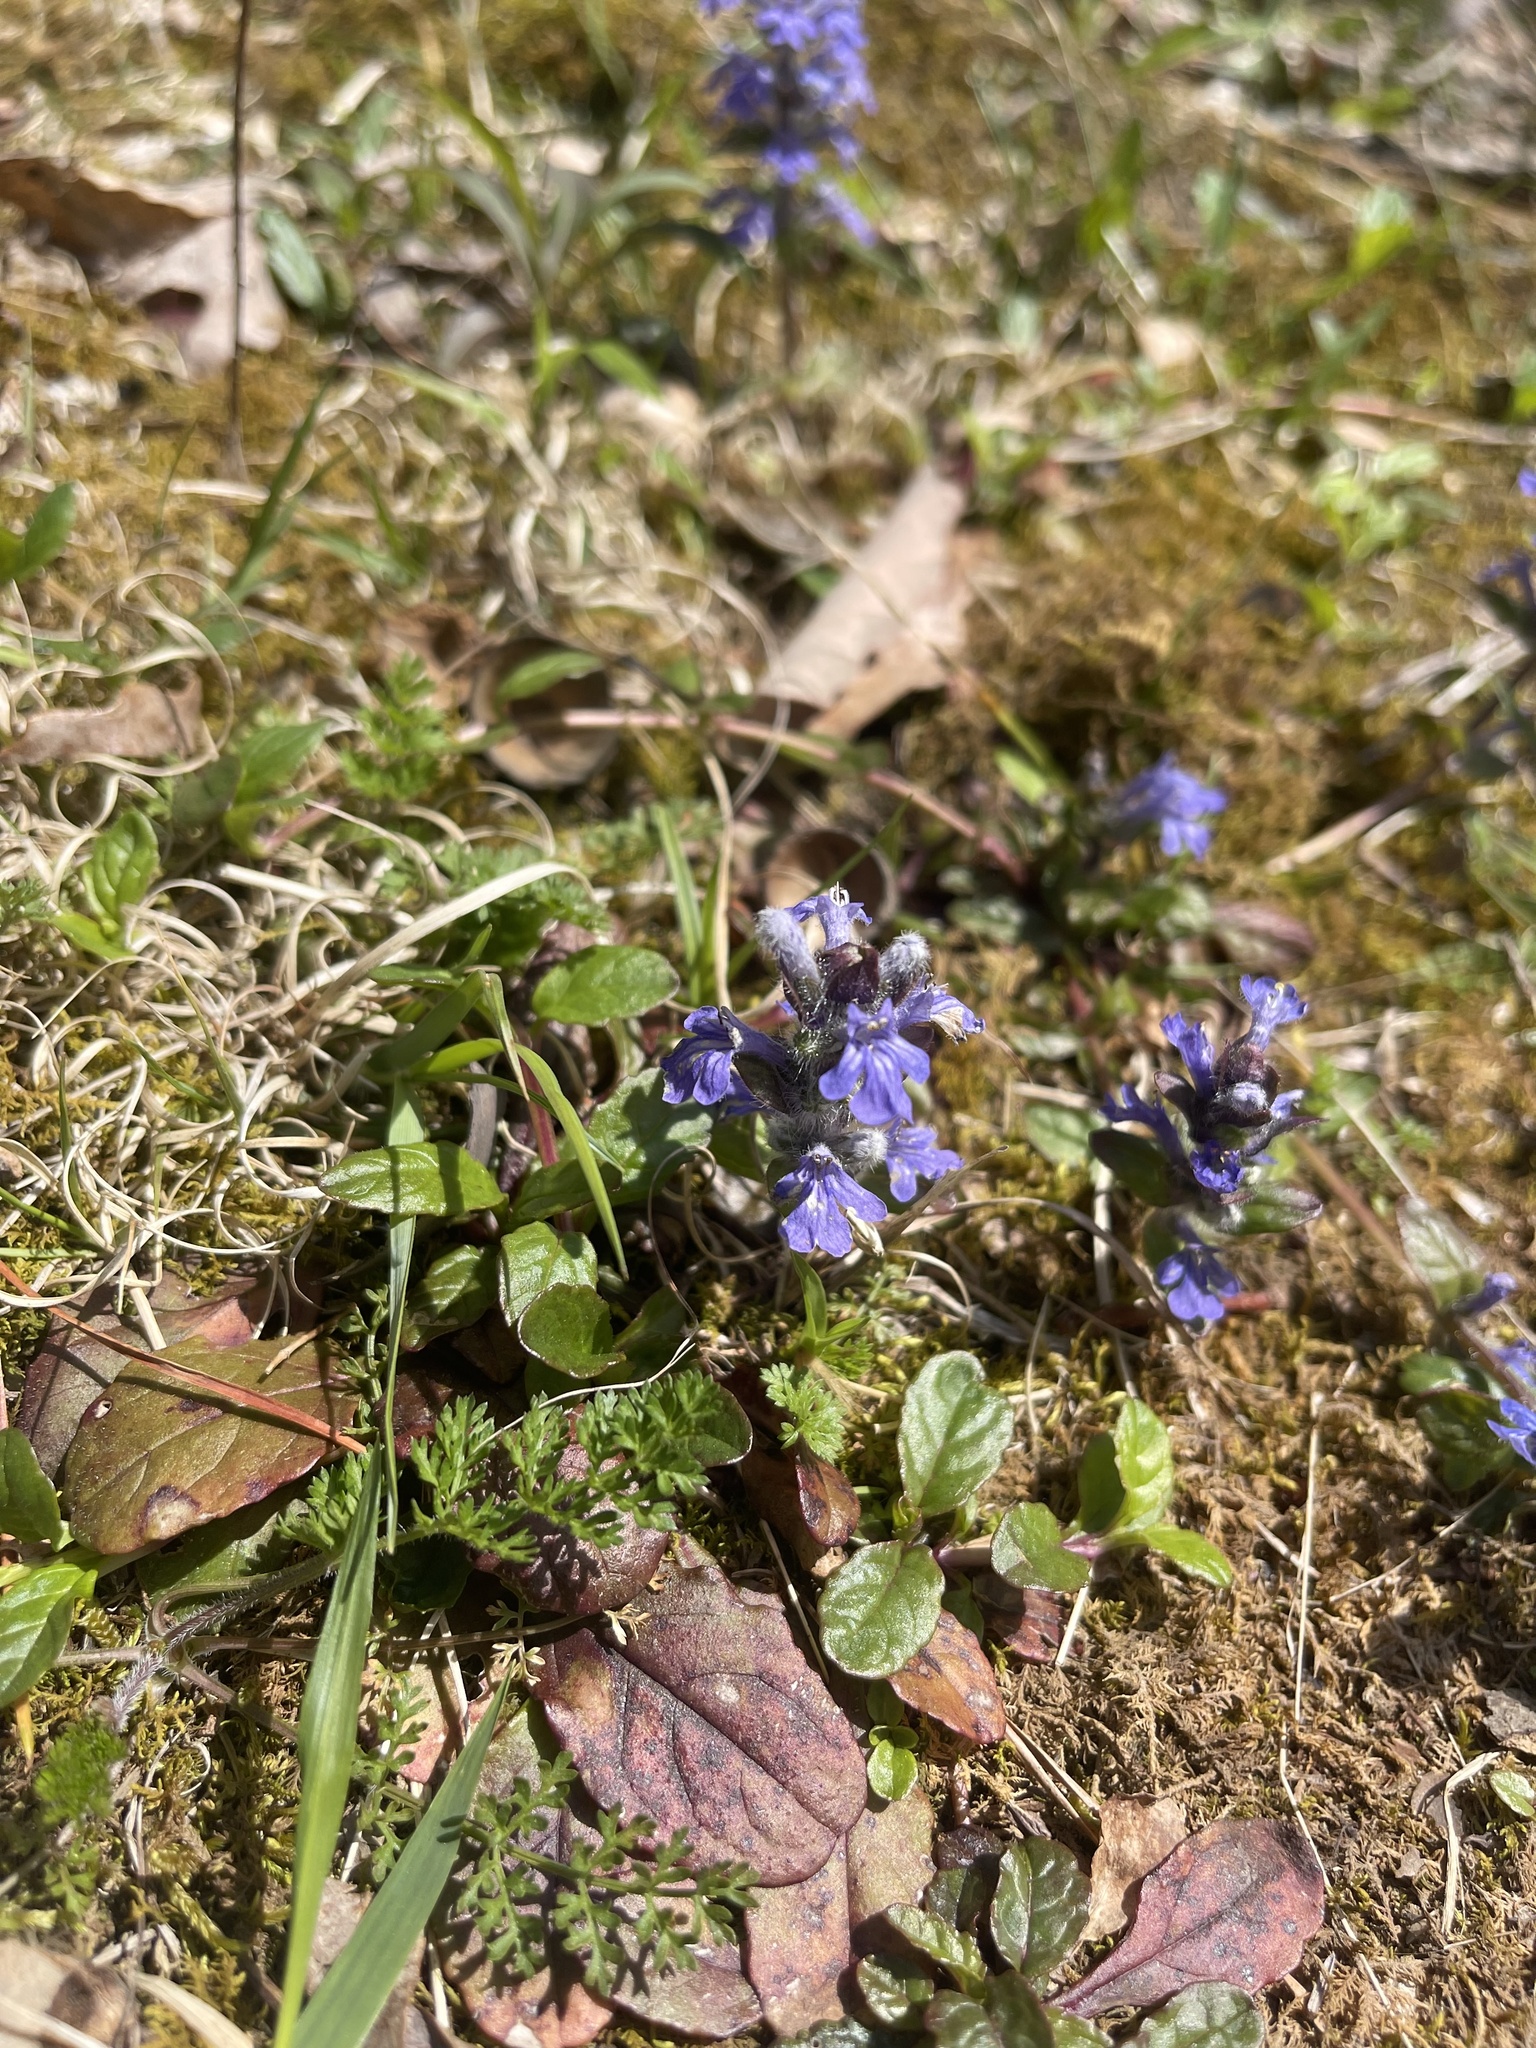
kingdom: Plantae
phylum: Tracheophyta
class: Magnoliopsida
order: Lamiales
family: Lamiaceae
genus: Ajuga
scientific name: Ajuga reptans
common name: Bugle
